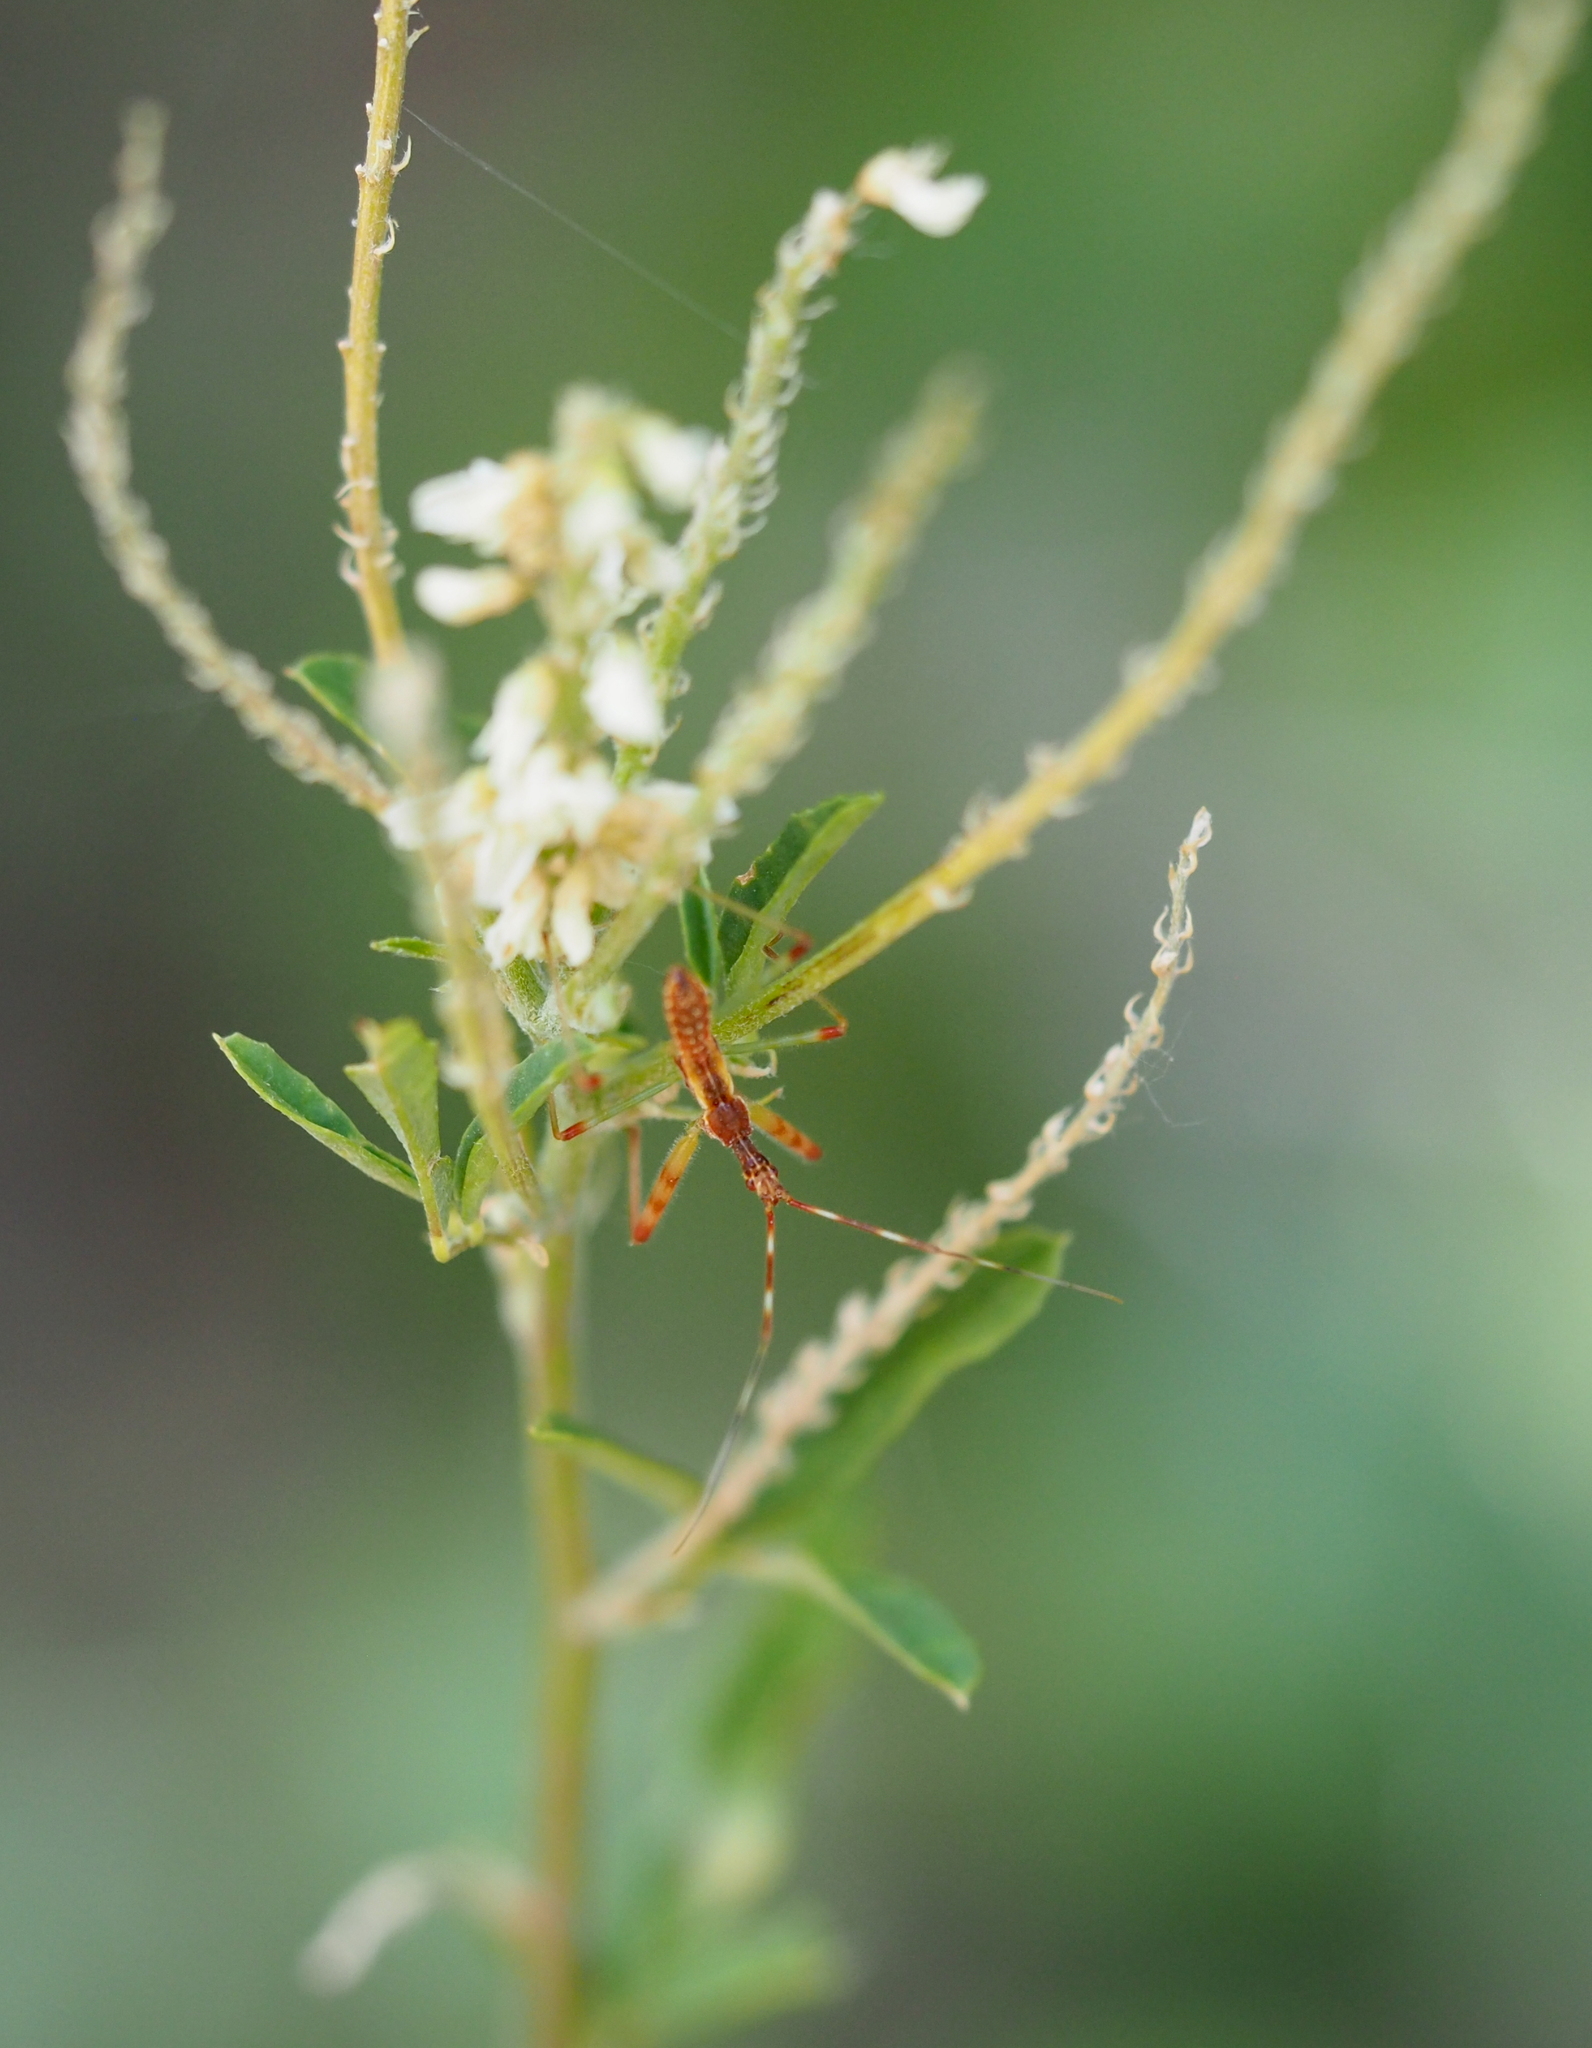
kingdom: Animalia
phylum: Arthropoda
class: Insecta
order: Hemiptera
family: Reduviidae
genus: Nagusta
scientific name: Nagusta goedelii
